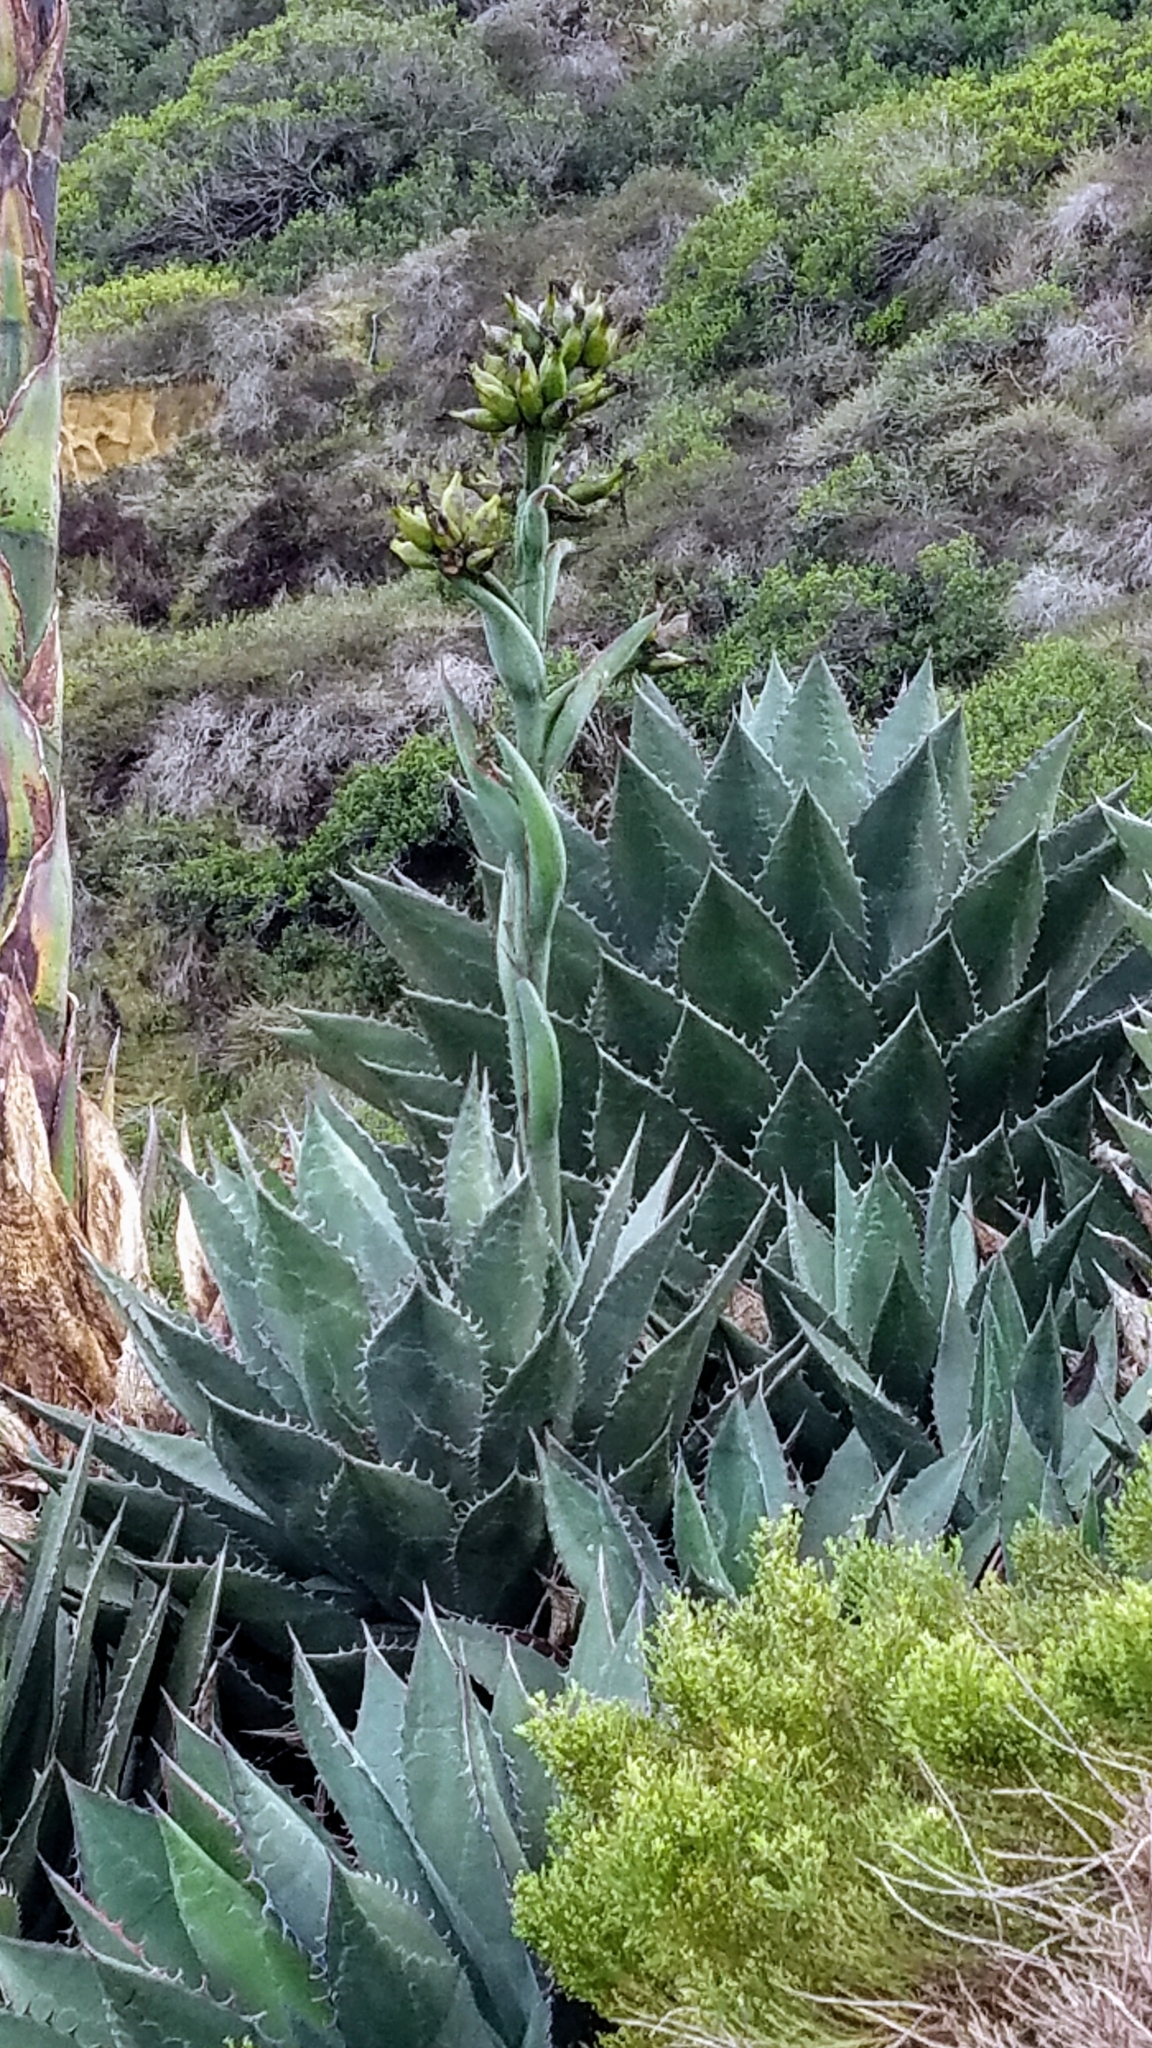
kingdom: Plantae
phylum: Tracheophyta
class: Liliopsida
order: Asparagales
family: Asparagaceae
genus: Agave
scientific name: Agave shawii
